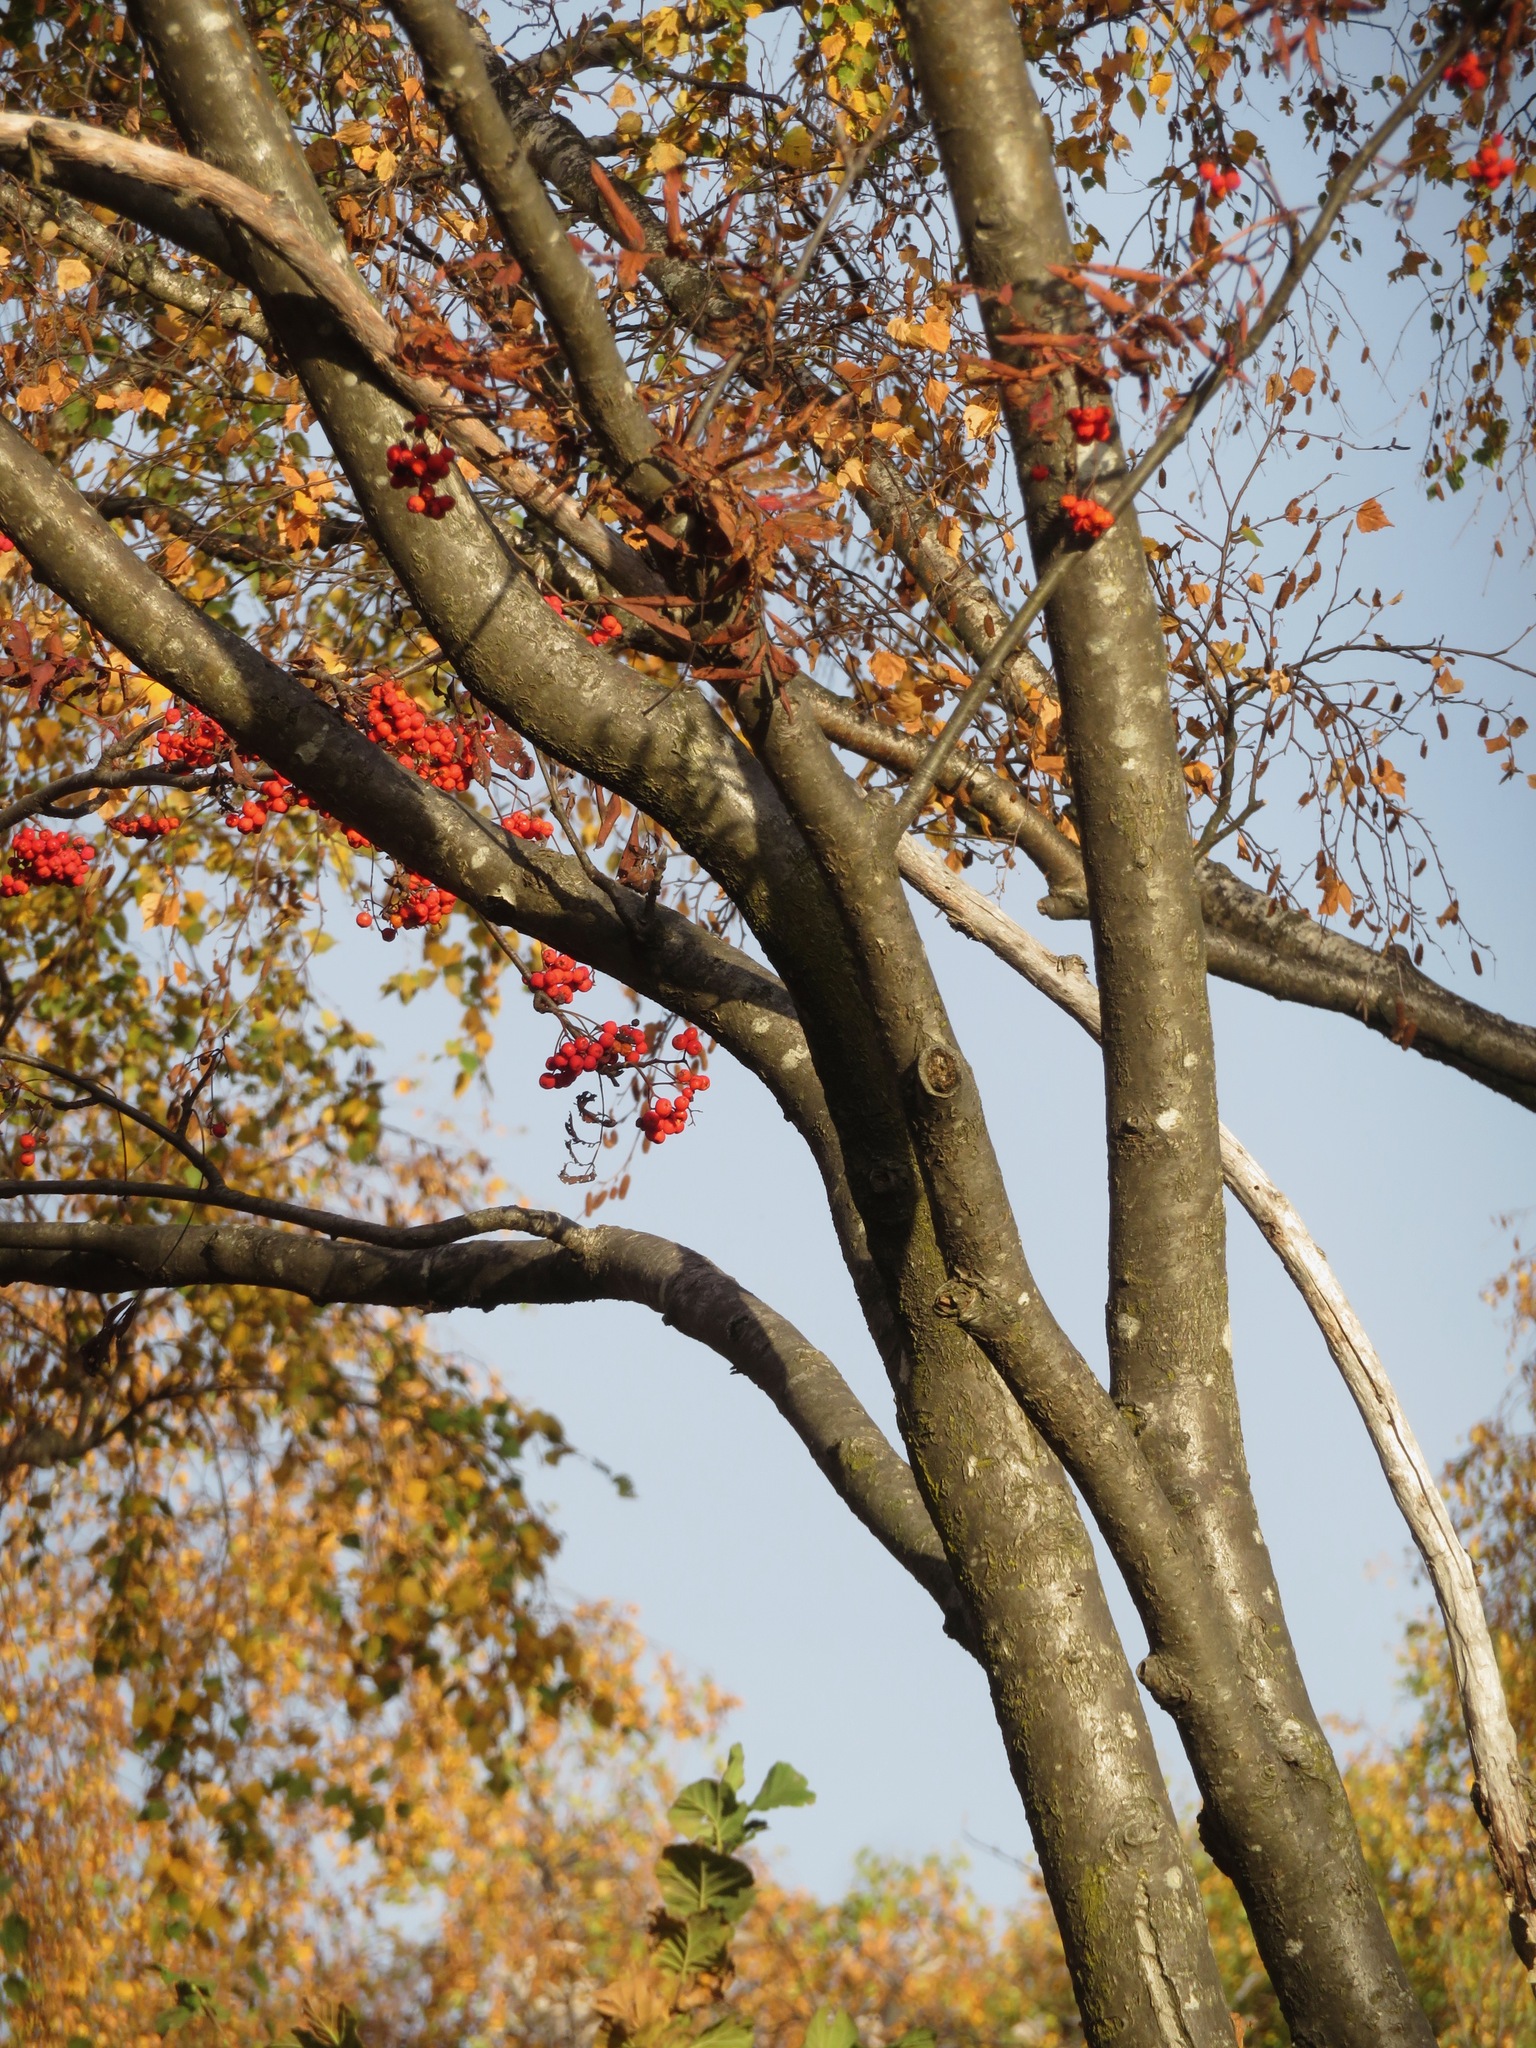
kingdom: Plantae
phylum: Tracheophyta
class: Magnoliopsida
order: Rosales
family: Rosaceae
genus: Sorbus
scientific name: Sorbus aucuparia
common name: Rowan
